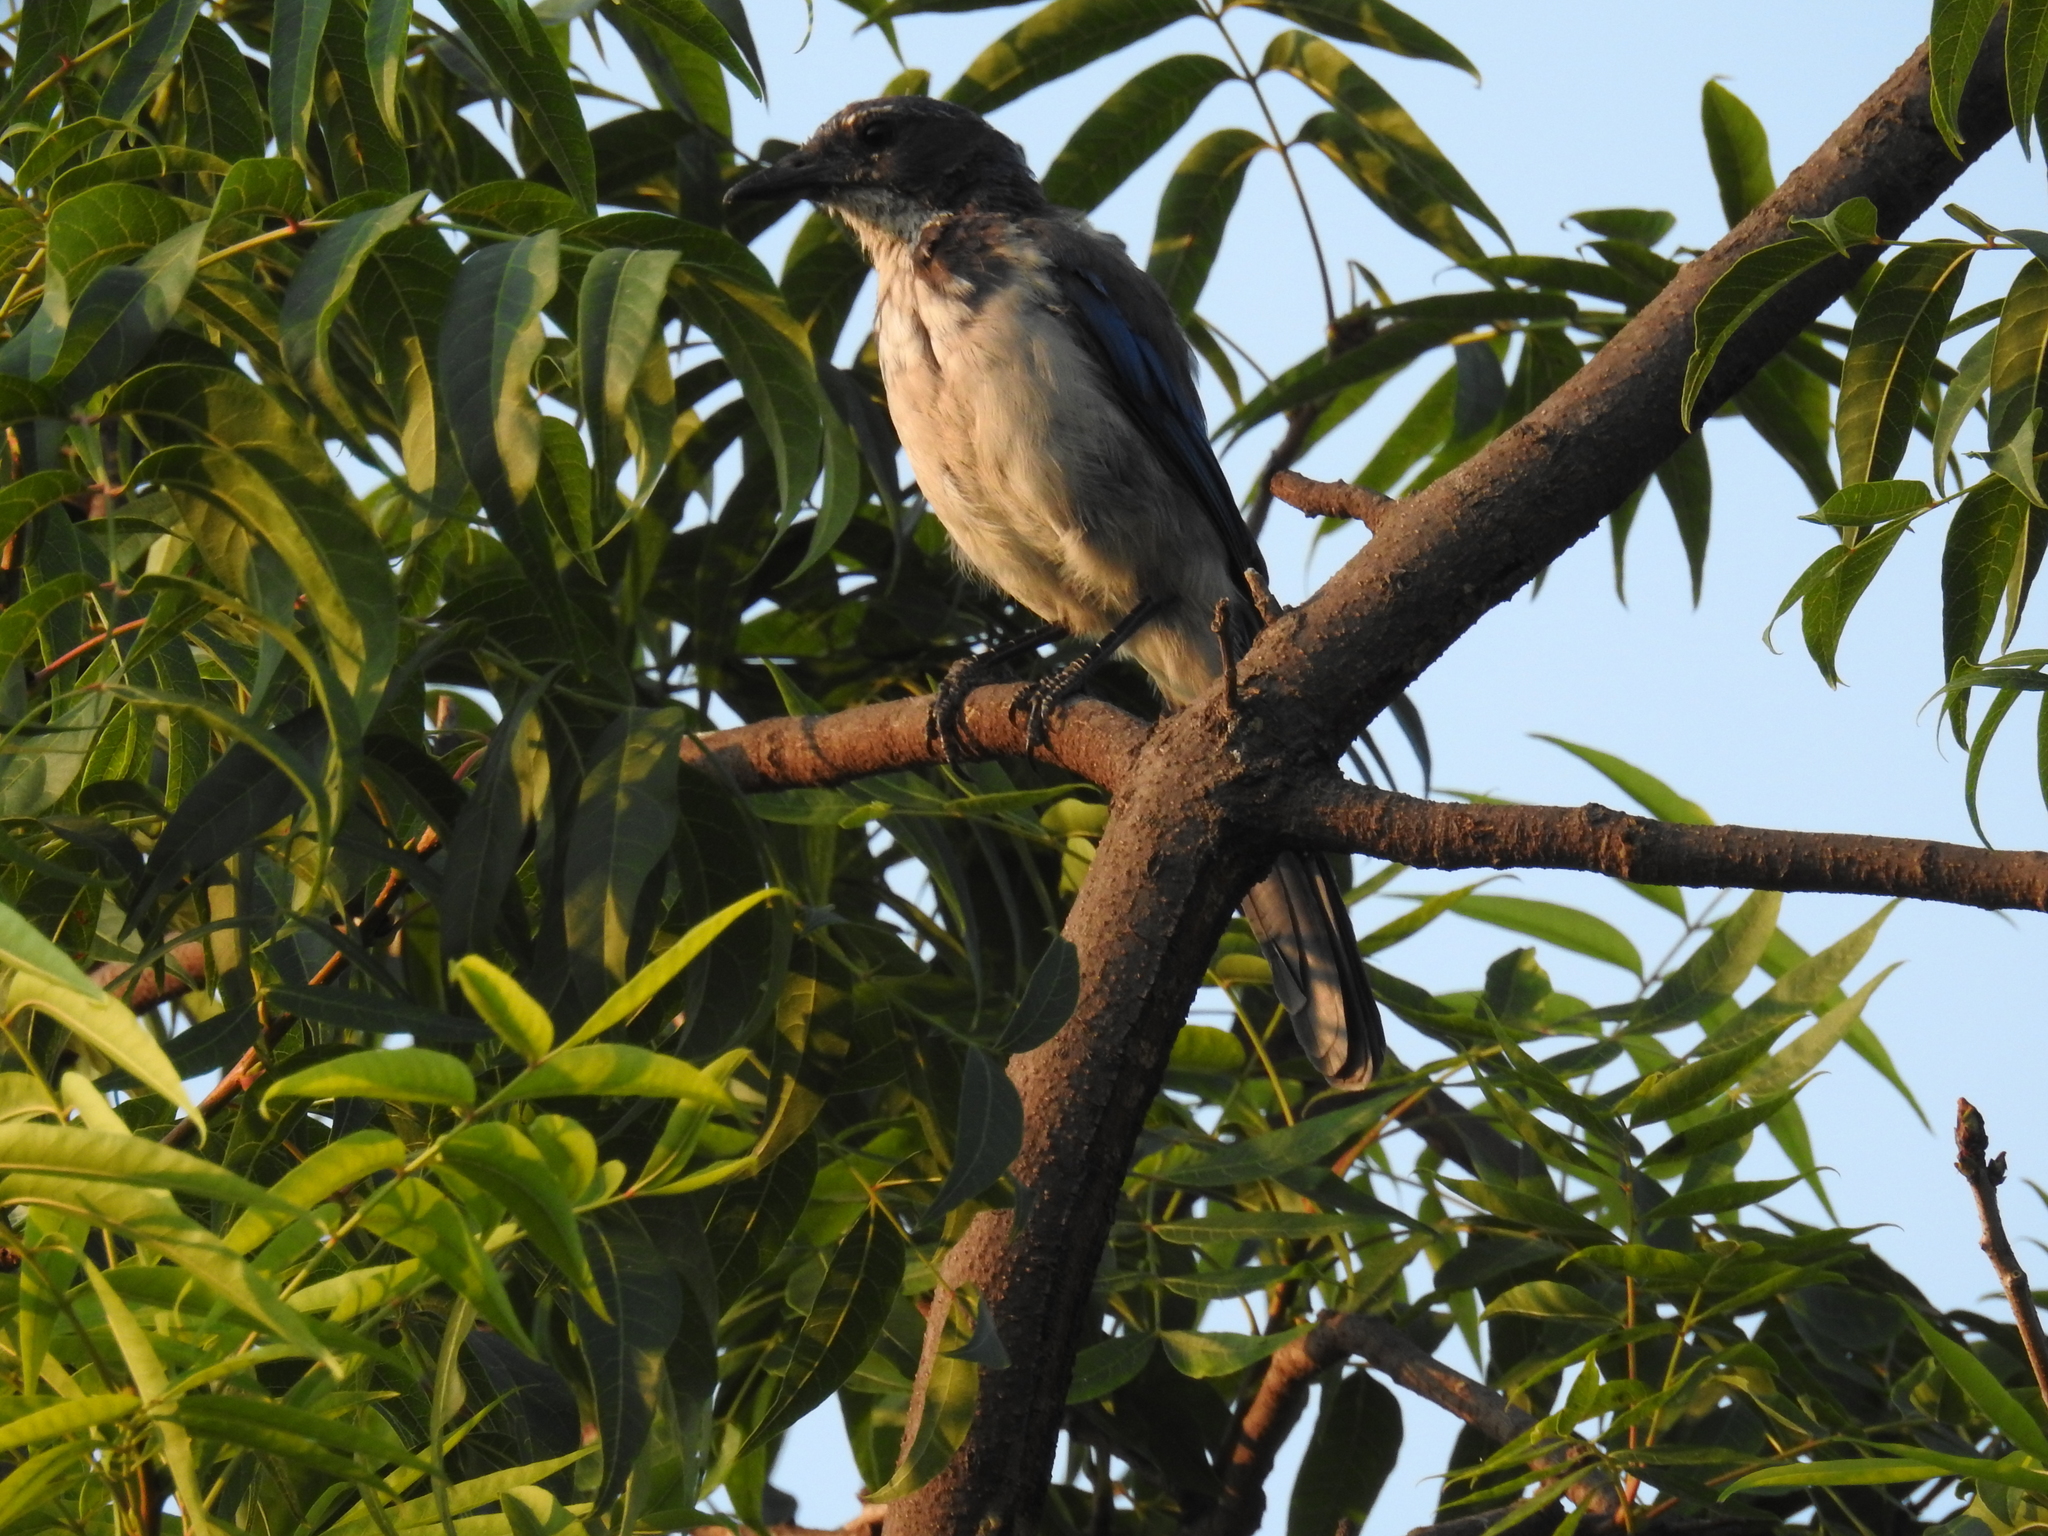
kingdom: Animalia
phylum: Chordata
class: Aves
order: Passeriformes
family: Corvidae
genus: Aphelocoma
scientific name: Aphelocoma californica
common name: California scrub-jay
